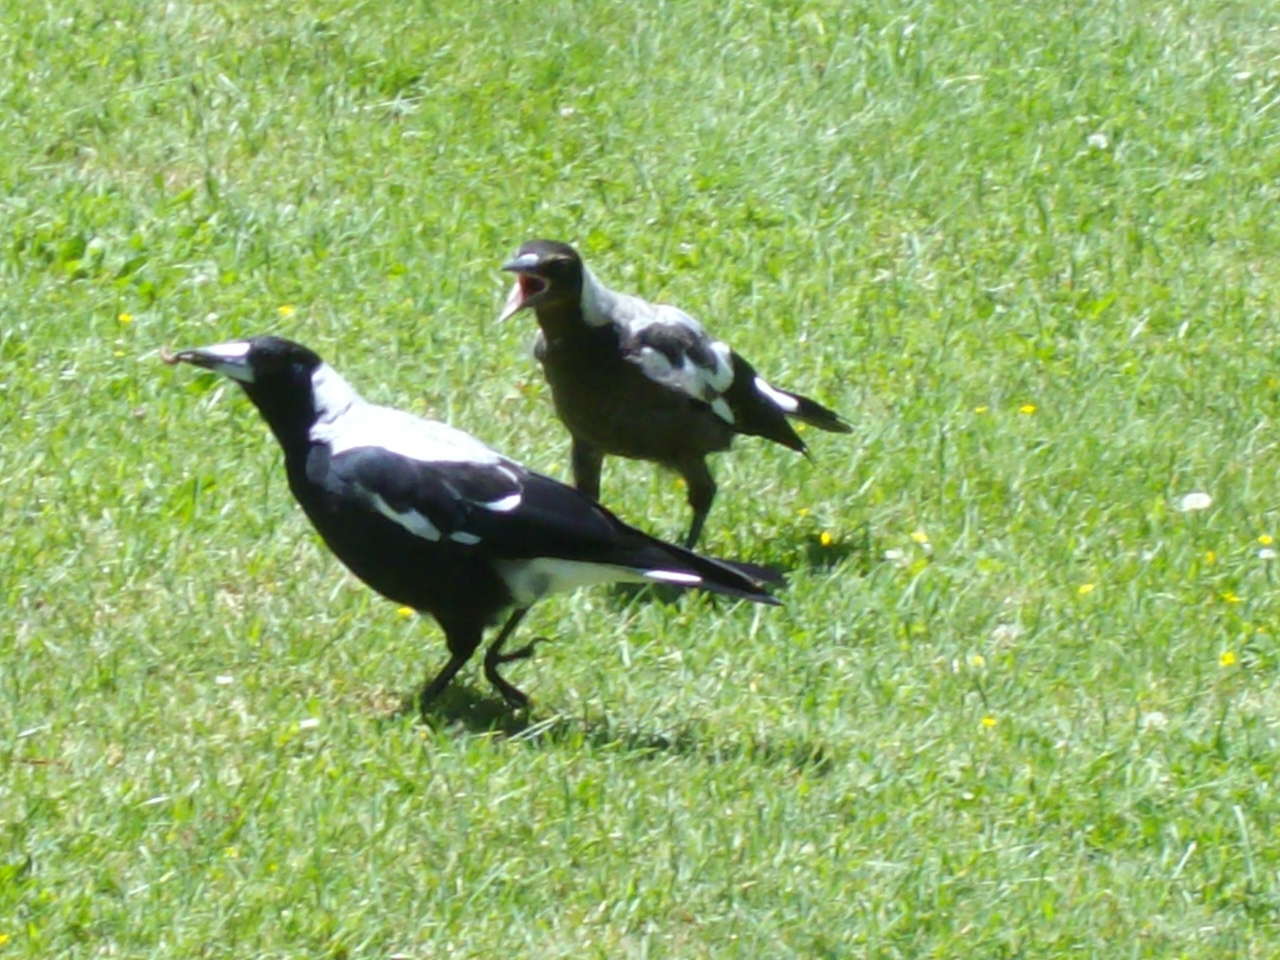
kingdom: Animalia
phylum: Chordata
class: Aves
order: Passeriformes
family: Cracticidae
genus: Gymnorhina
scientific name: Gymnorhina tibicen
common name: Australian magpie
